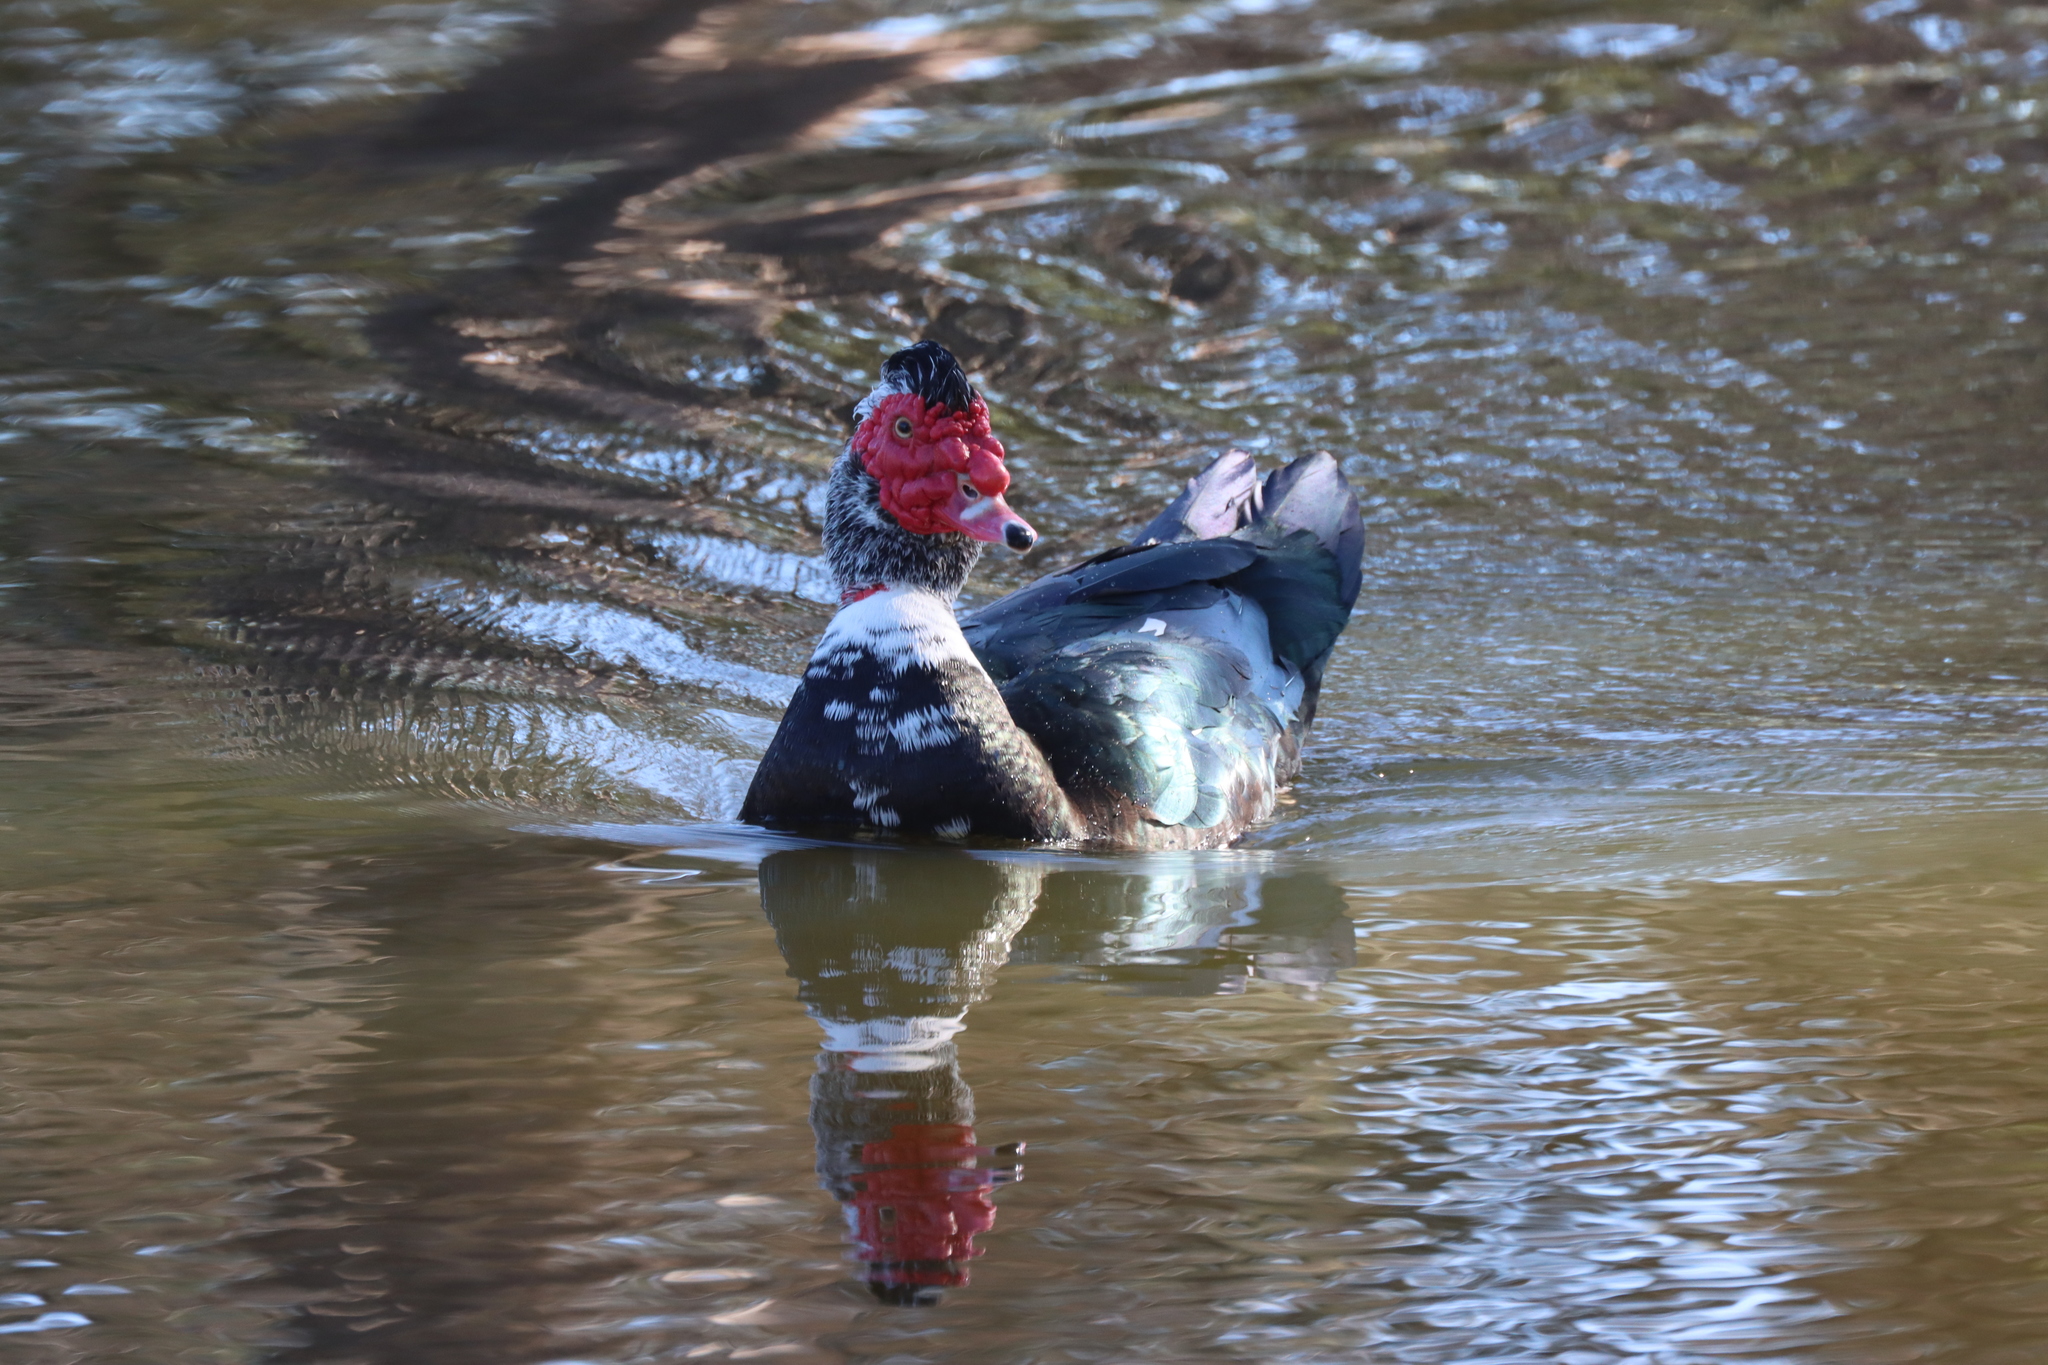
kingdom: Animalia
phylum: Chordata
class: Aves
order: Anseriformes
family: Anatidae
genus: Cairina
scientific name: Cairina moschata
